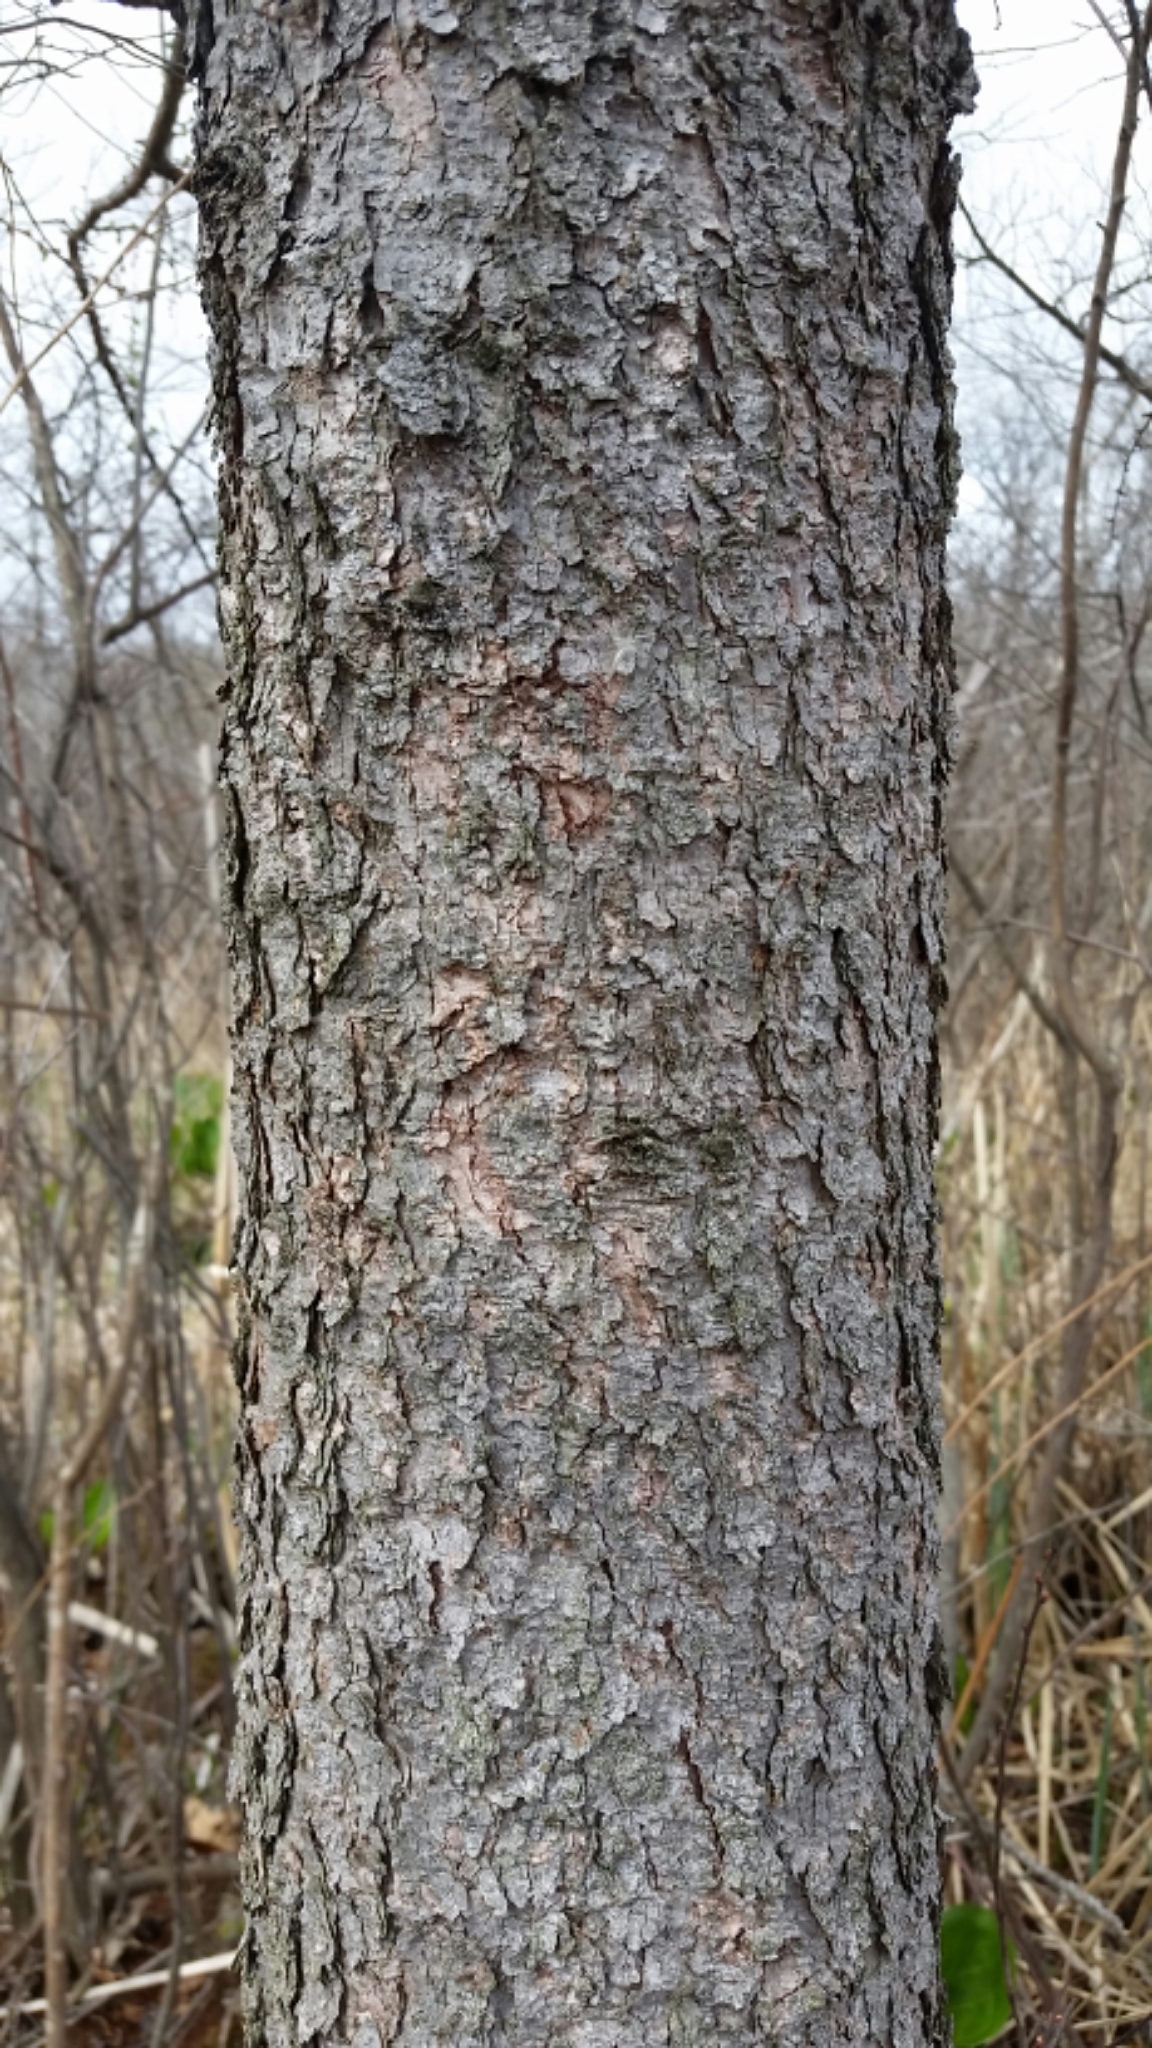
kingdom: Plantae
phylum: Tracheophyta
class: Pinopsida
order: Pinales
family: Pinaceae
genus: Larix
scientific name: Larix laricina
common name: American larch
